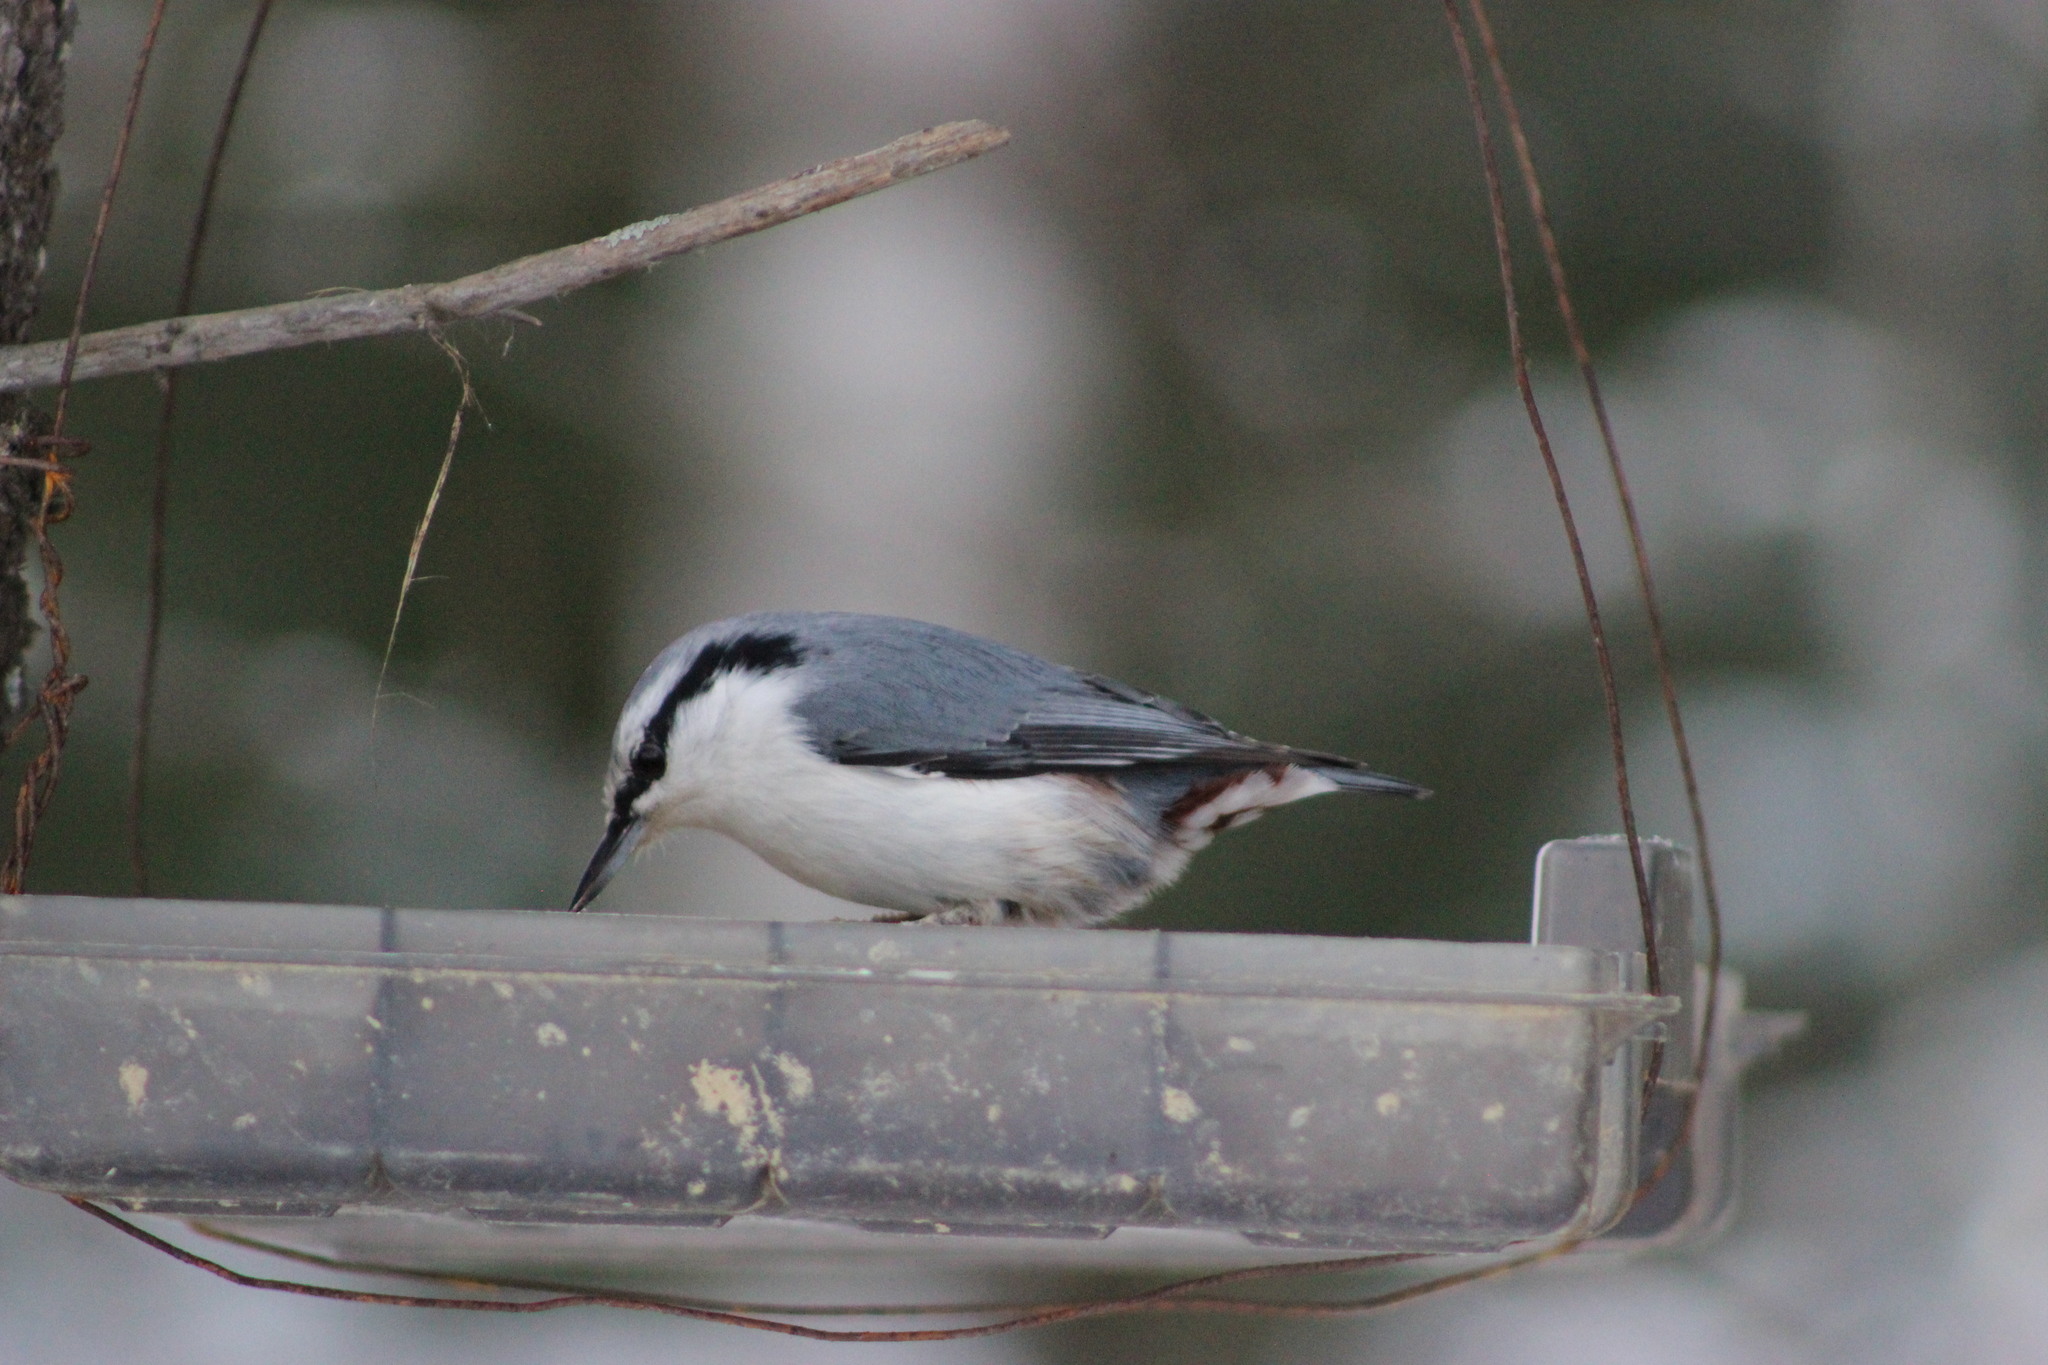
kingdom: Animalia
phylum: Chordata
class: Aves
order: Passeriformes
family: Sittidae
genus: Sitta
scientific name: Sitta europaea
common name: Eurasian nuthatch
